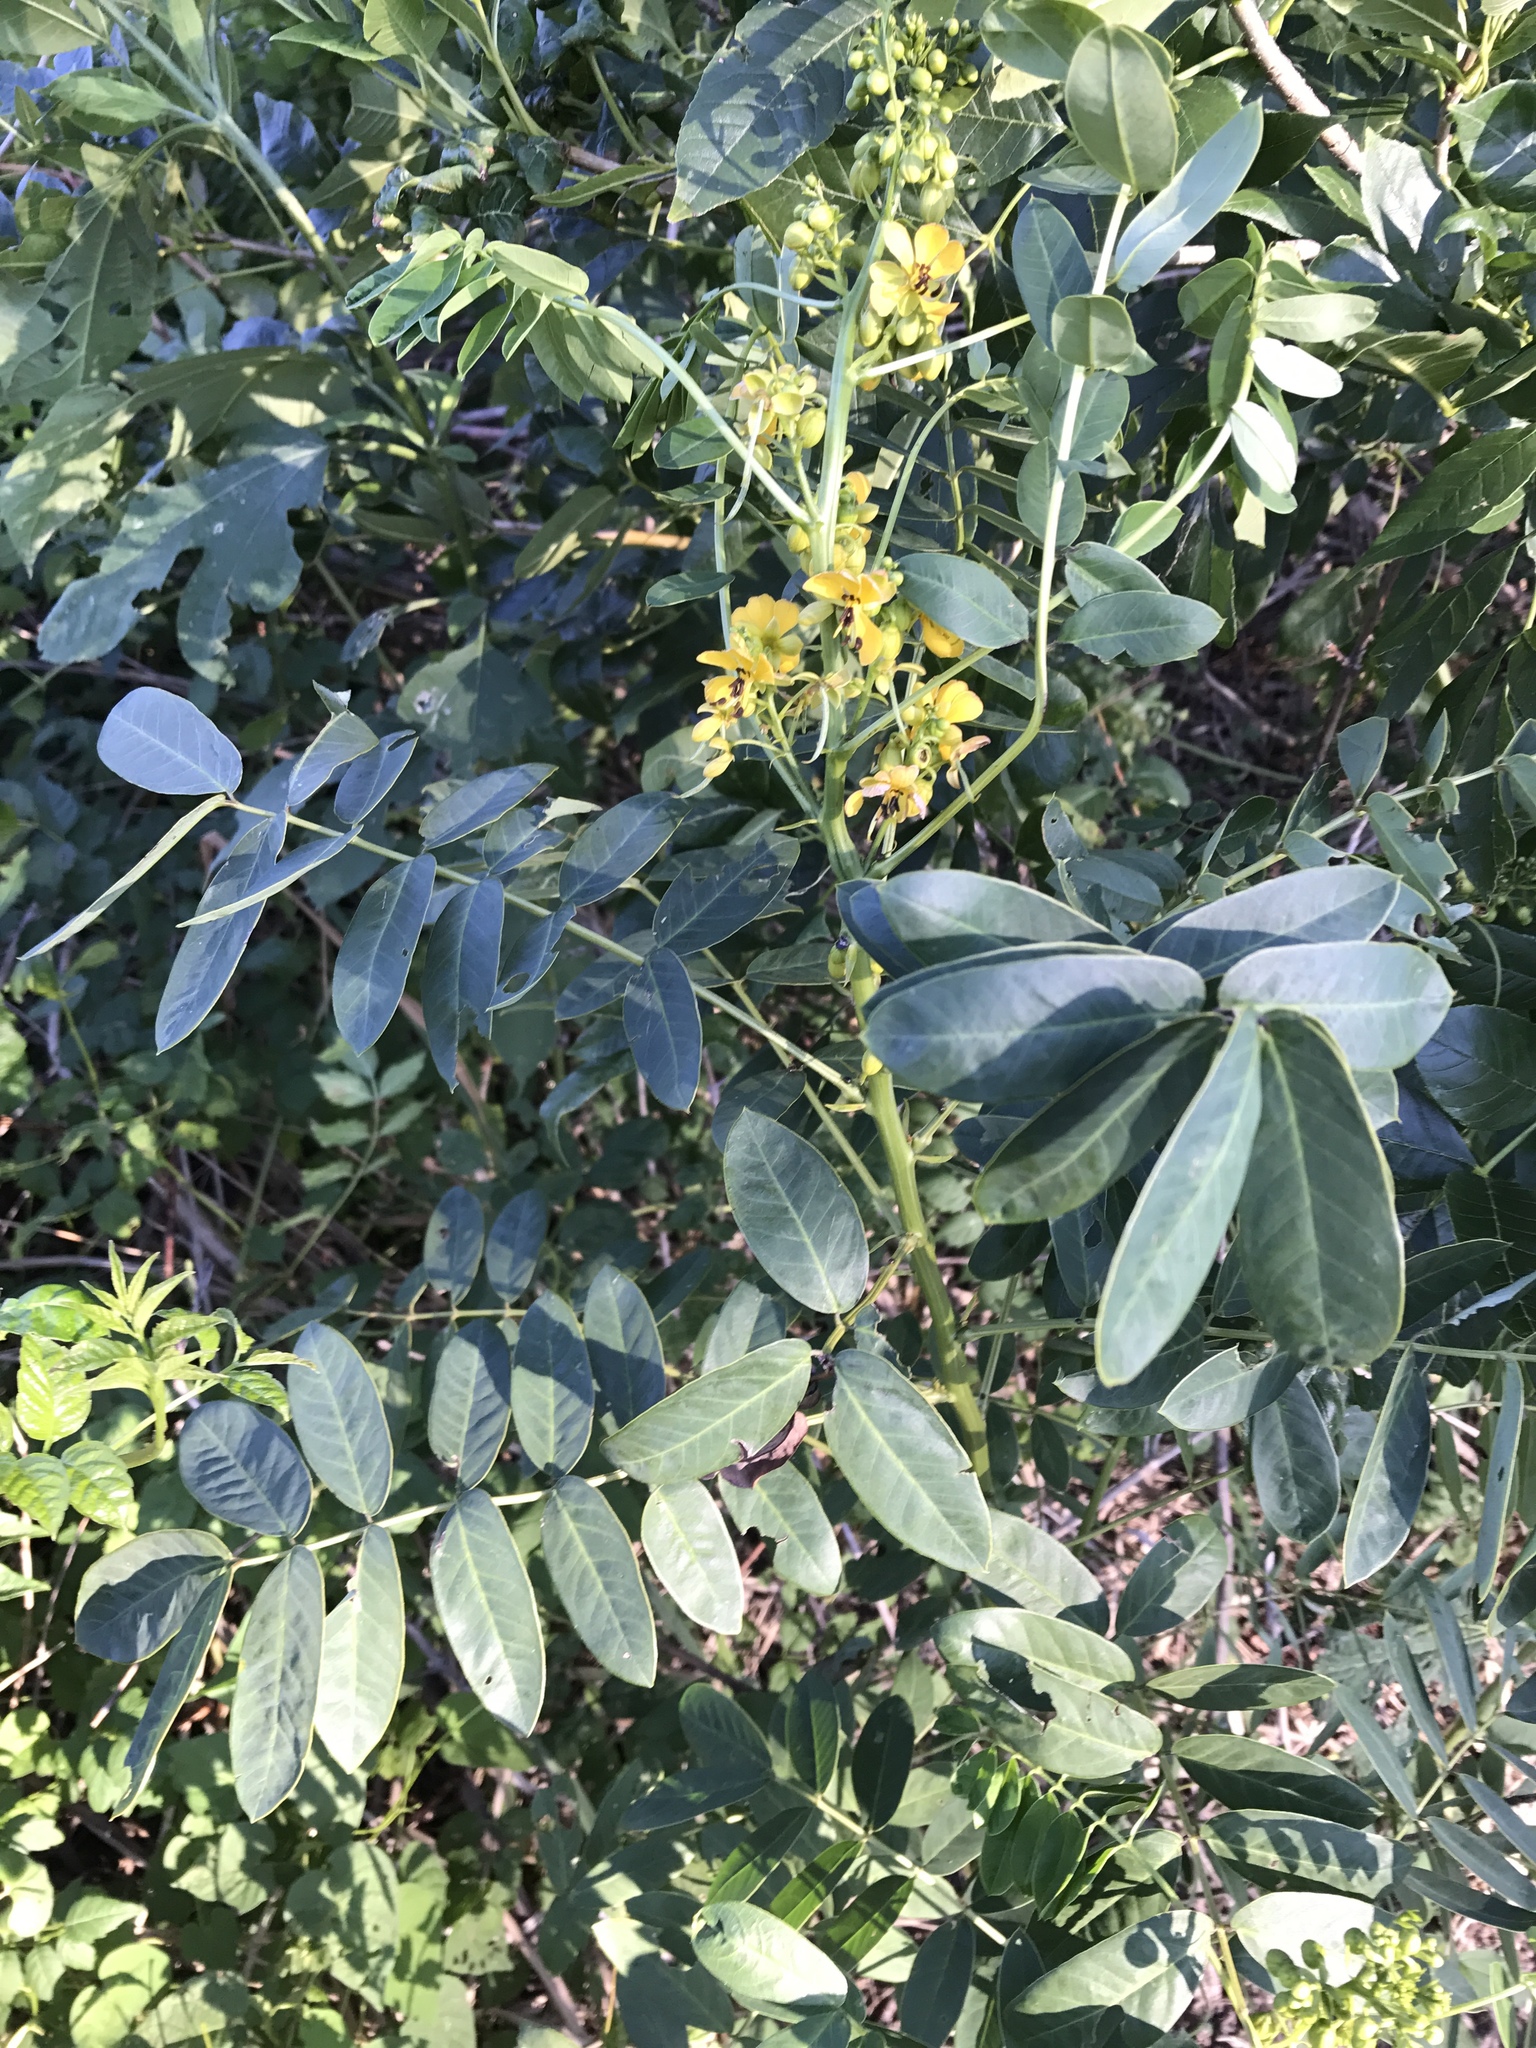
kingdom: Plantae
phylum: Tracheophyta
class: Magnoliopsida
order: Fabales
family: Fabaceae
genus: Senna
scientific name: Senna marilandica
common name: American senna
